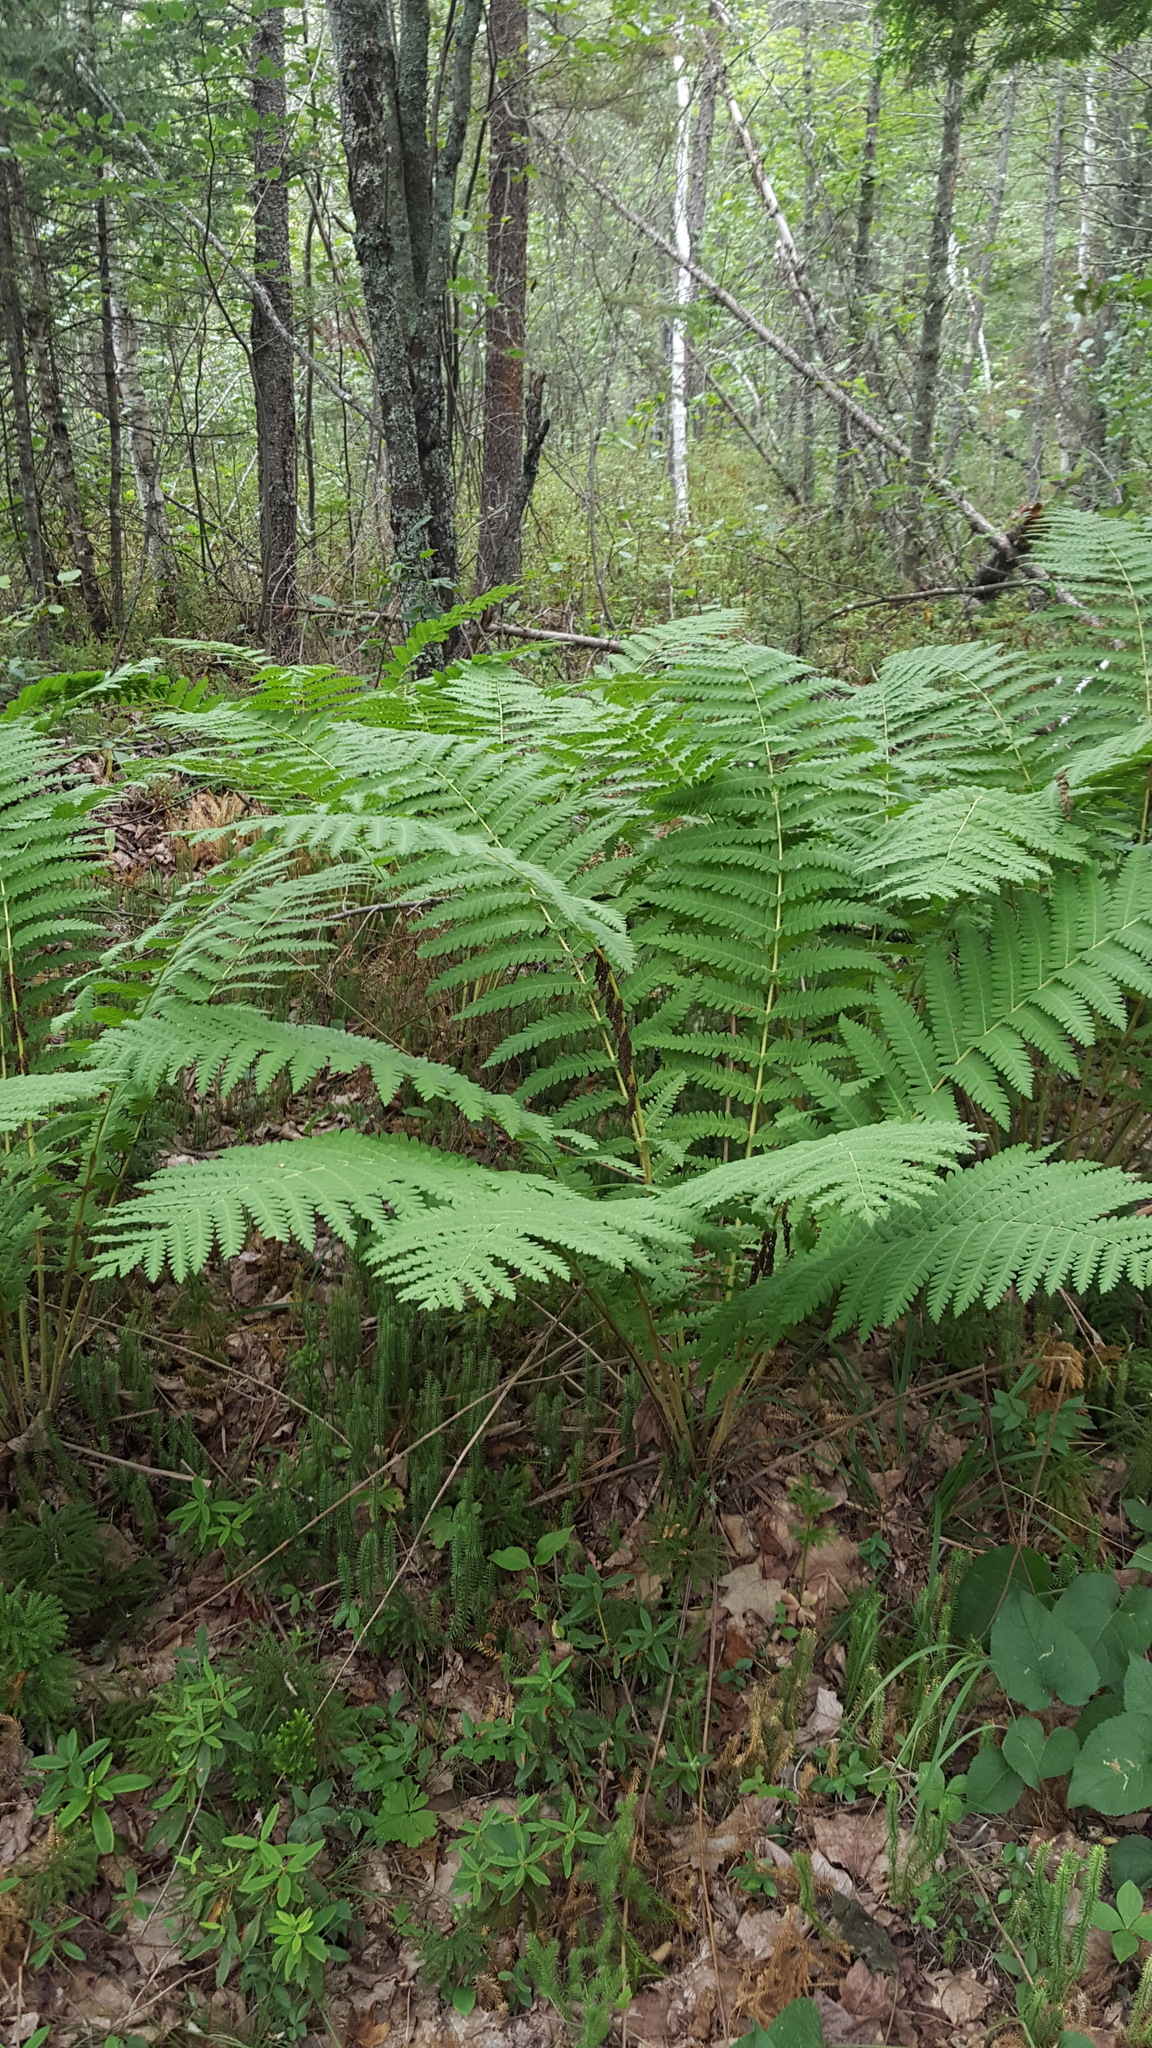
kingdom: Plantae
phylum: Tracheophyta
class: Polypodiopsida
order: Osmundales
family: Osmundaceae
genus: Claytosmunda
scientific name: Claytosmunda claytoniana
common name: Clayton's fern
